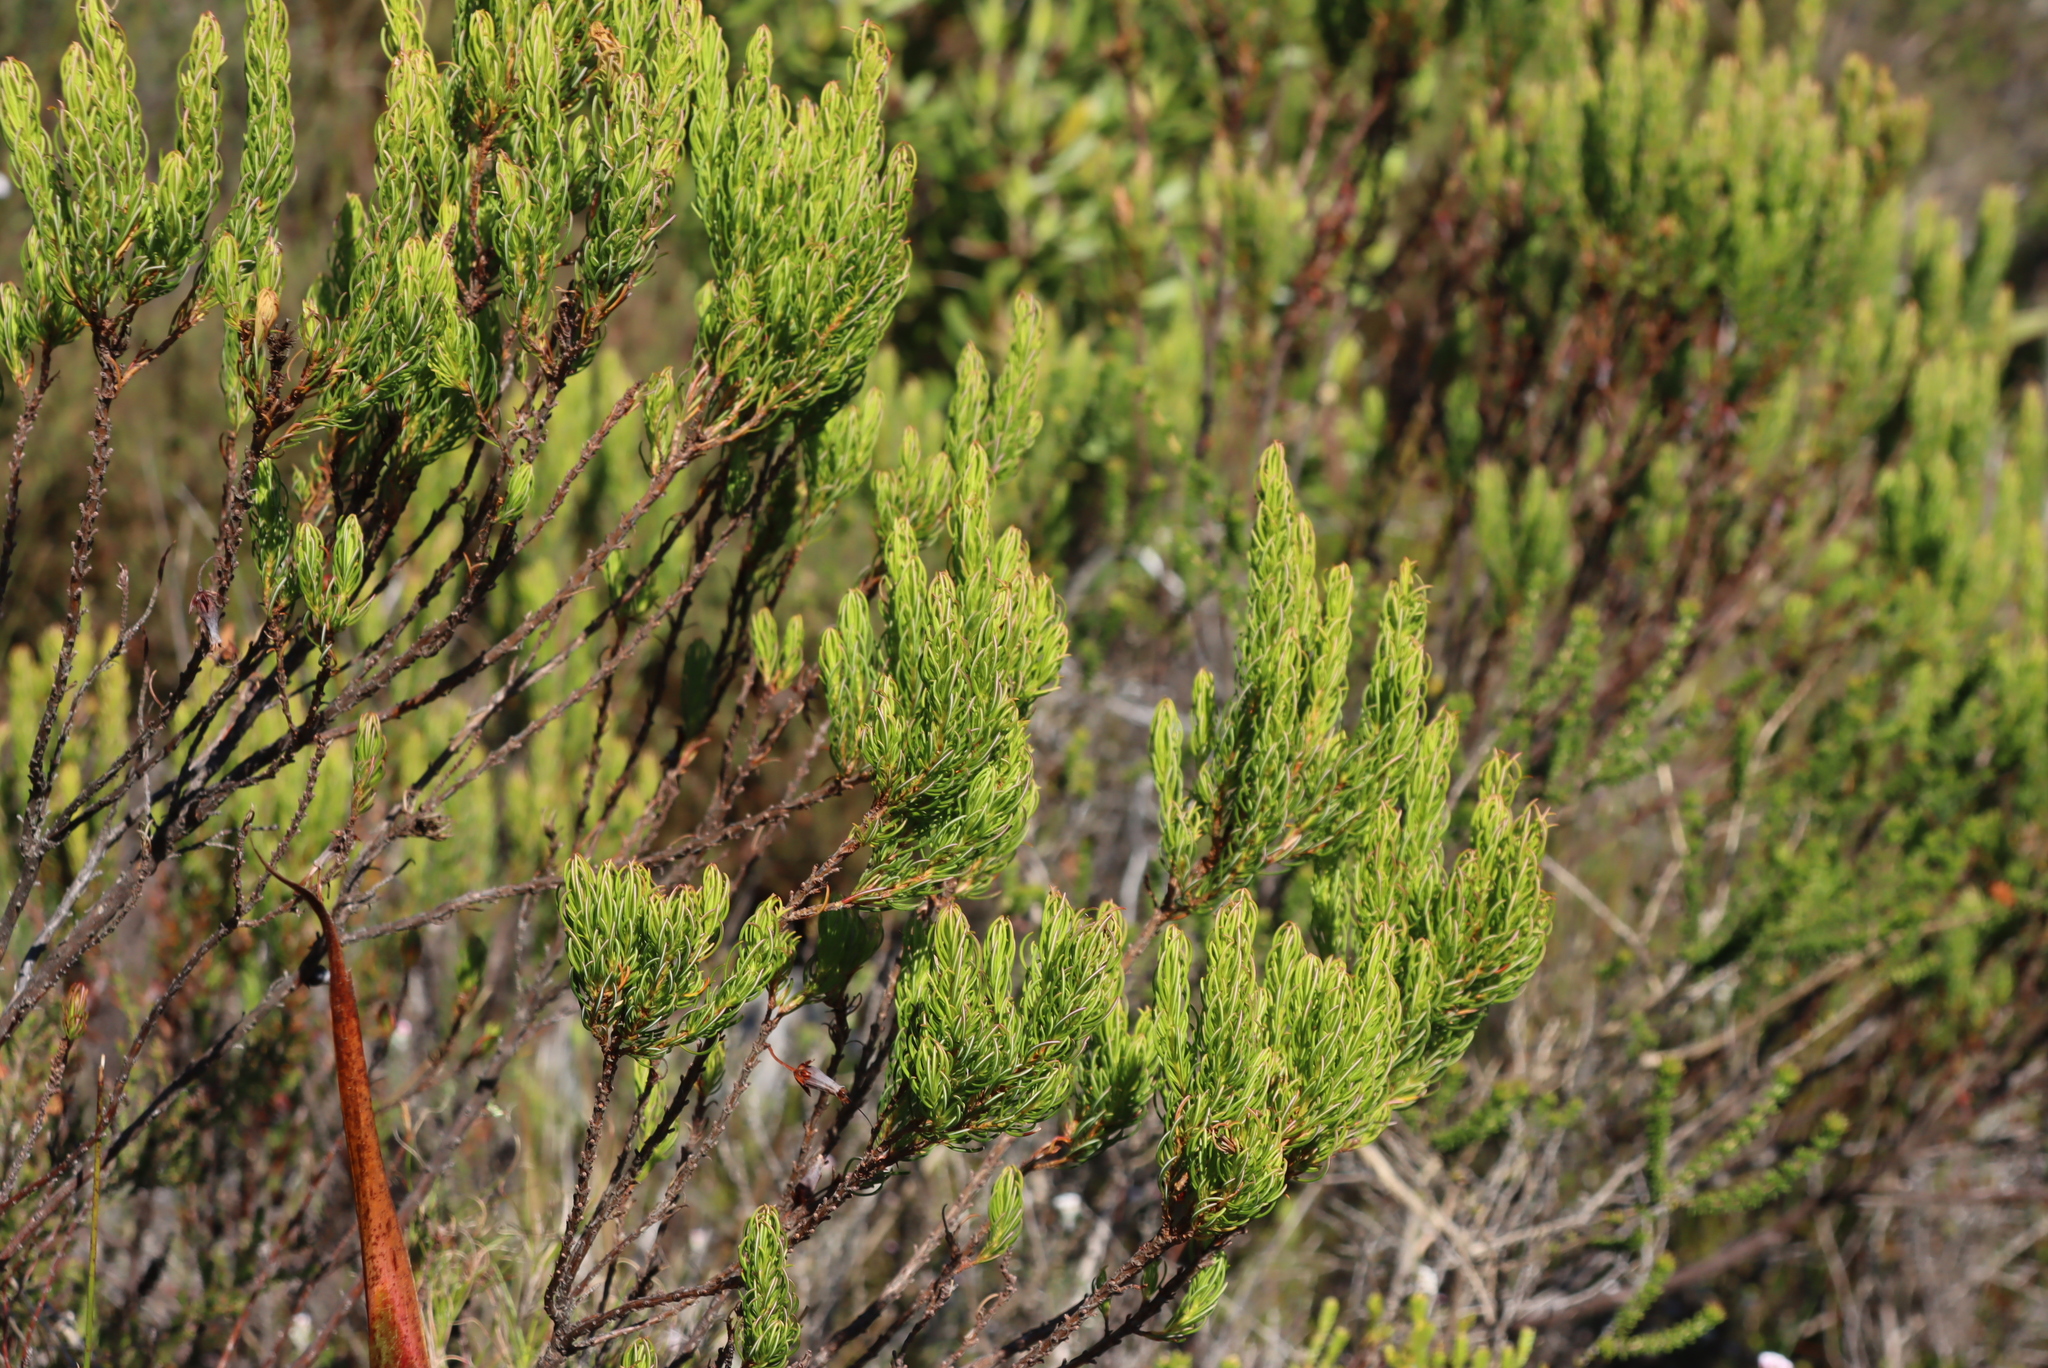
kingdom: Plantae
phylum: Tracheophyta
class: Magnoliopsida
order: Ericales
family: Ericaceae
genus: Erica
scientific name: Erica plukenetii
